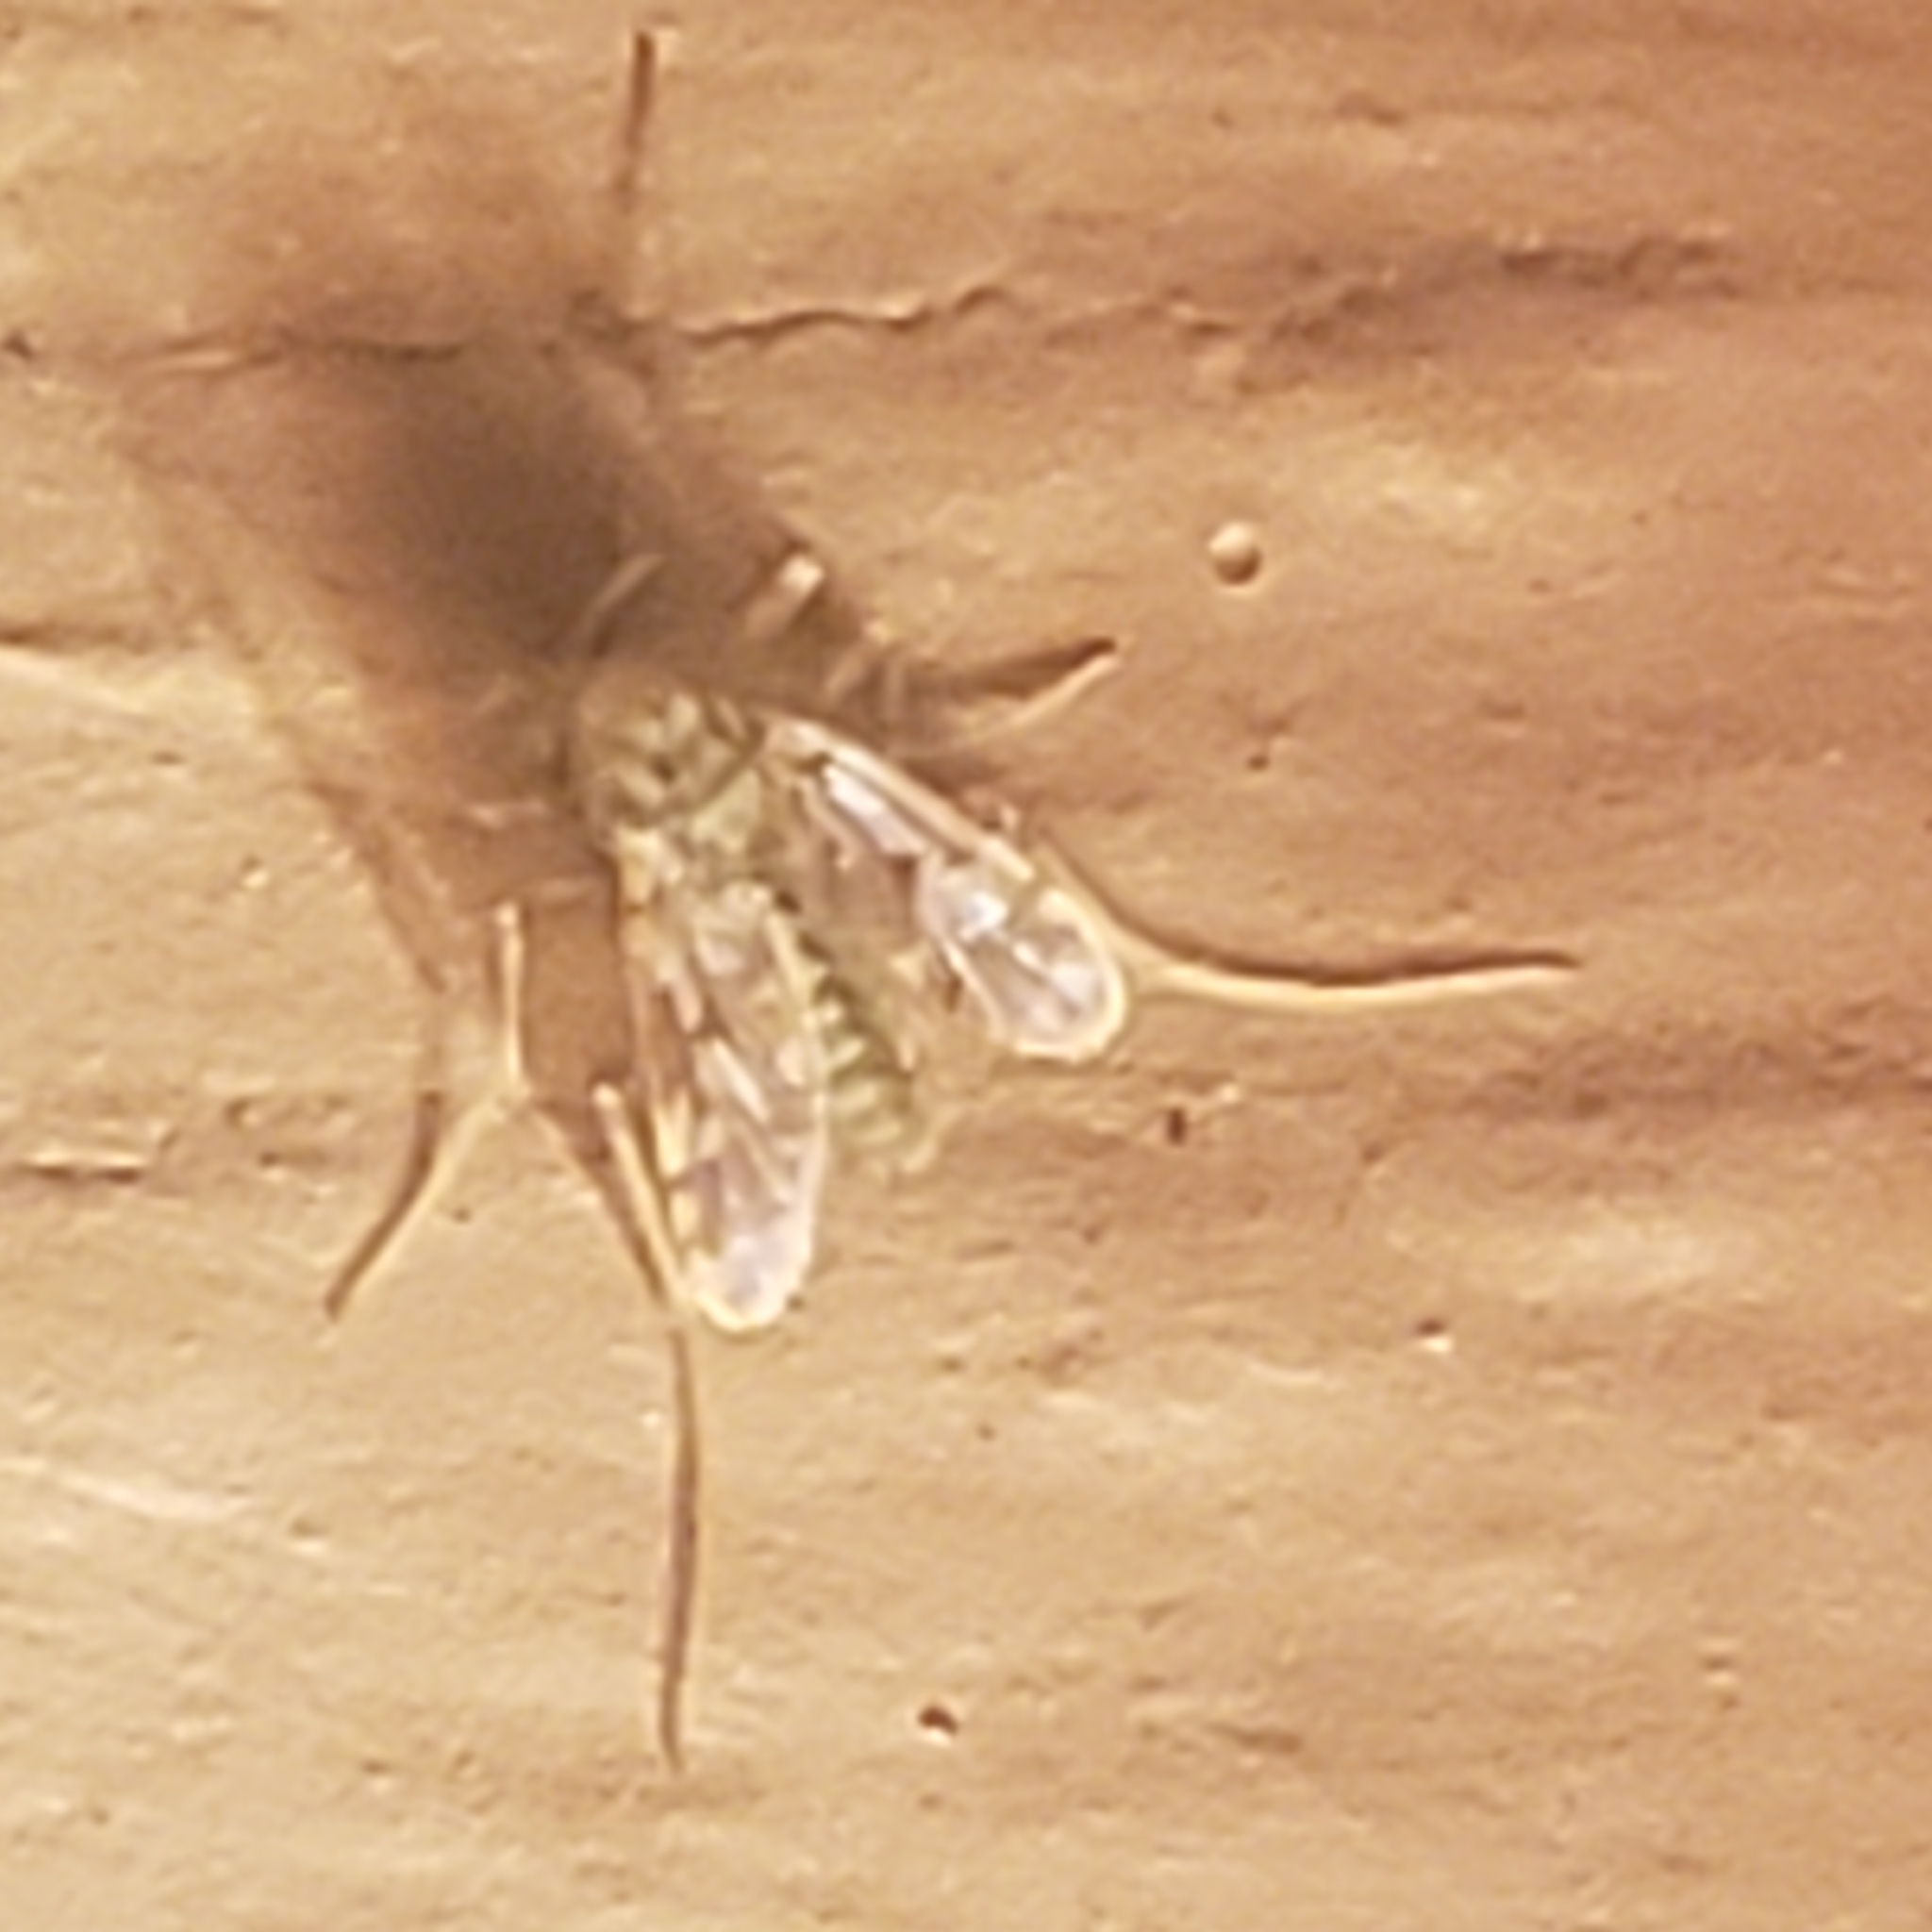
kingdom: Animalia
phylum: Arthropoda
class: Insecta
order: Diptera
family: Chironomidae
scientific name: Chironomidae
